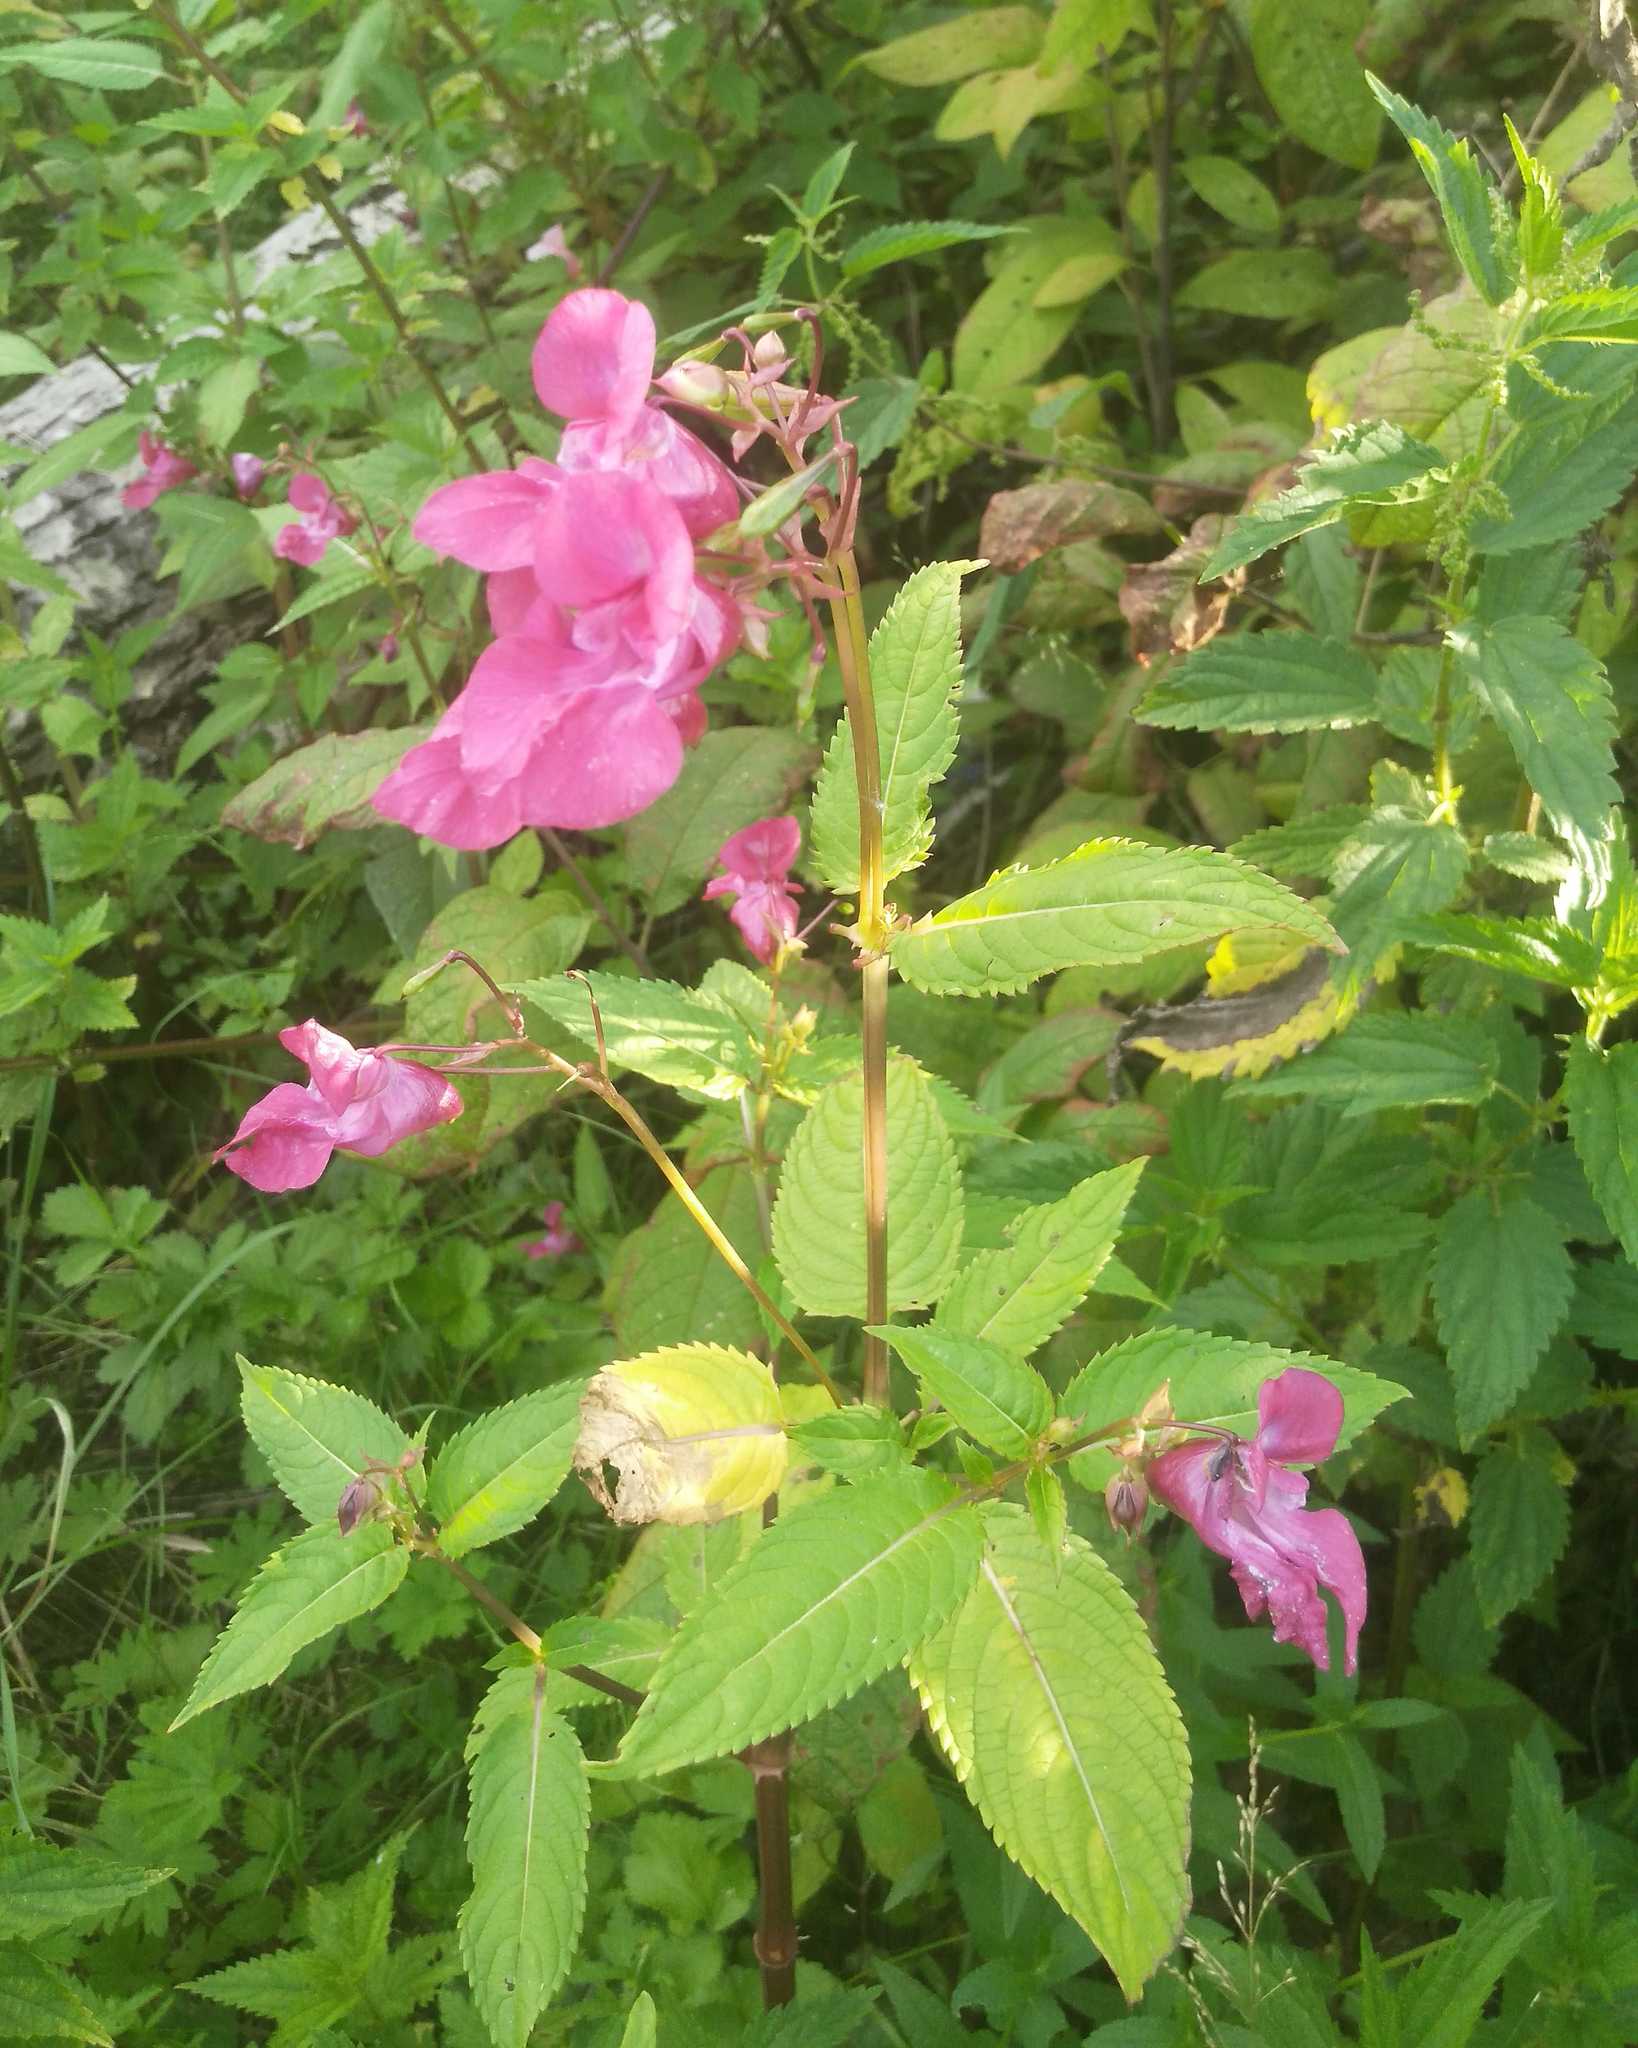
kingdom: Plantae
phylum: Tracheophyta
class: Magnoliopsida
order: Ericales
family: Balsaminaceae
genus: Impatiens
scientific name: Impatiens glandulifera
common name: Himalayan balsam
